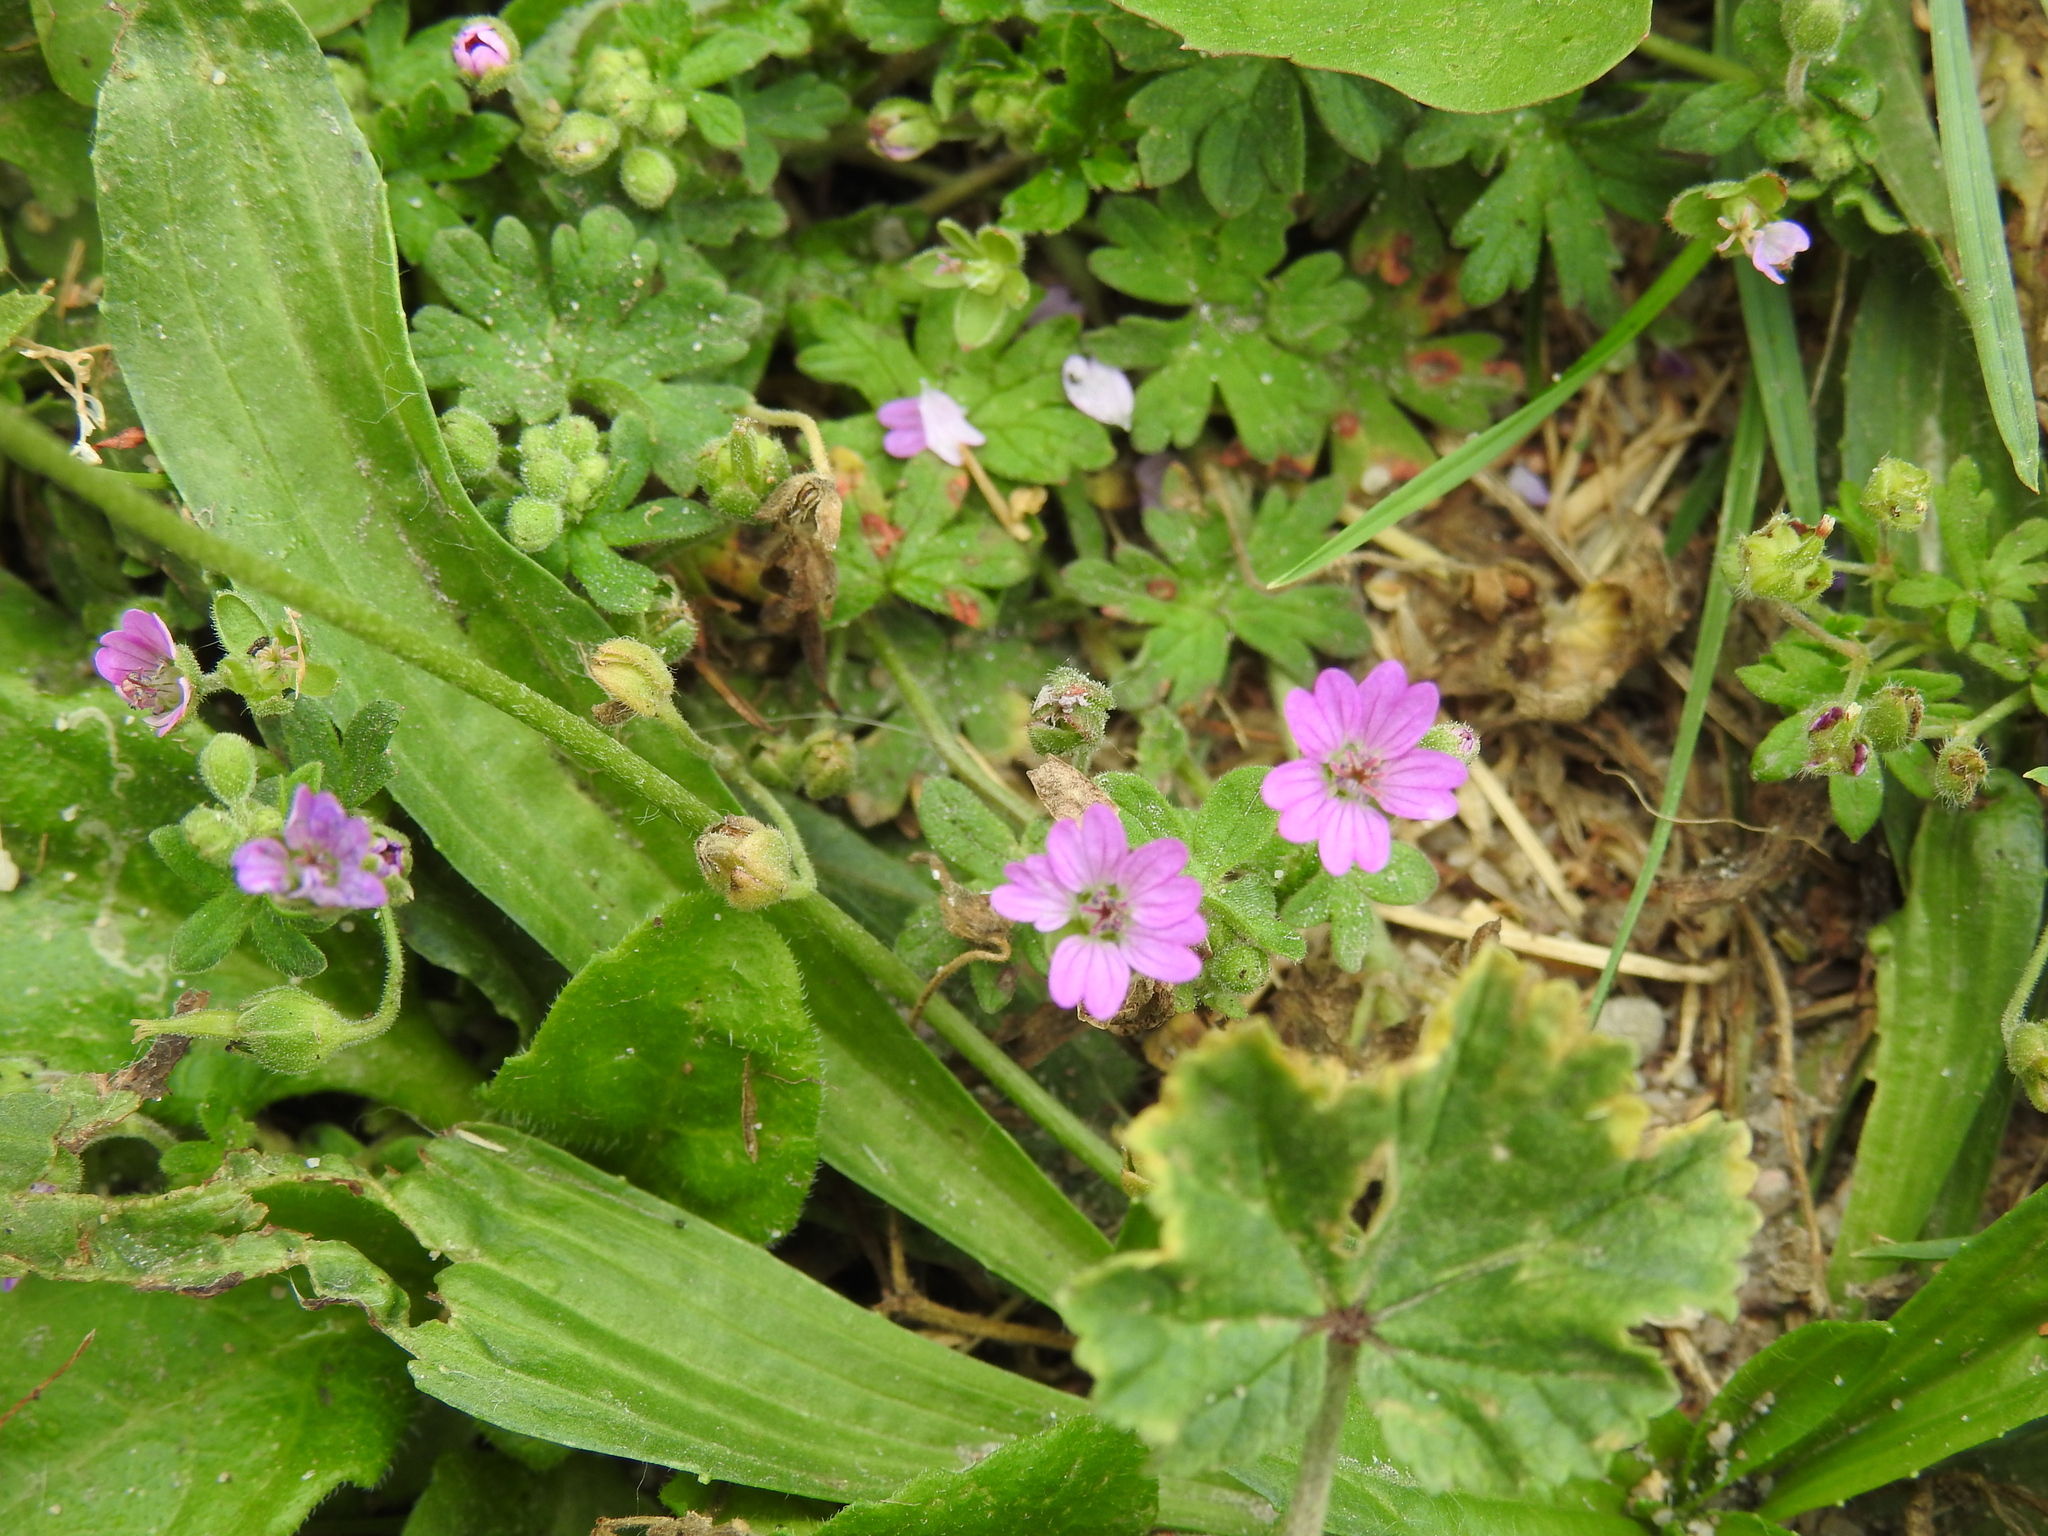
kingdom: Plantae
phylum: Tracheophyta
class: Magnoliopsida
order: Geraniales
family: Geraniaceae
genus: Geranium
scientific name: Geranium molle
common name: Dove's-foot crane's-bill
